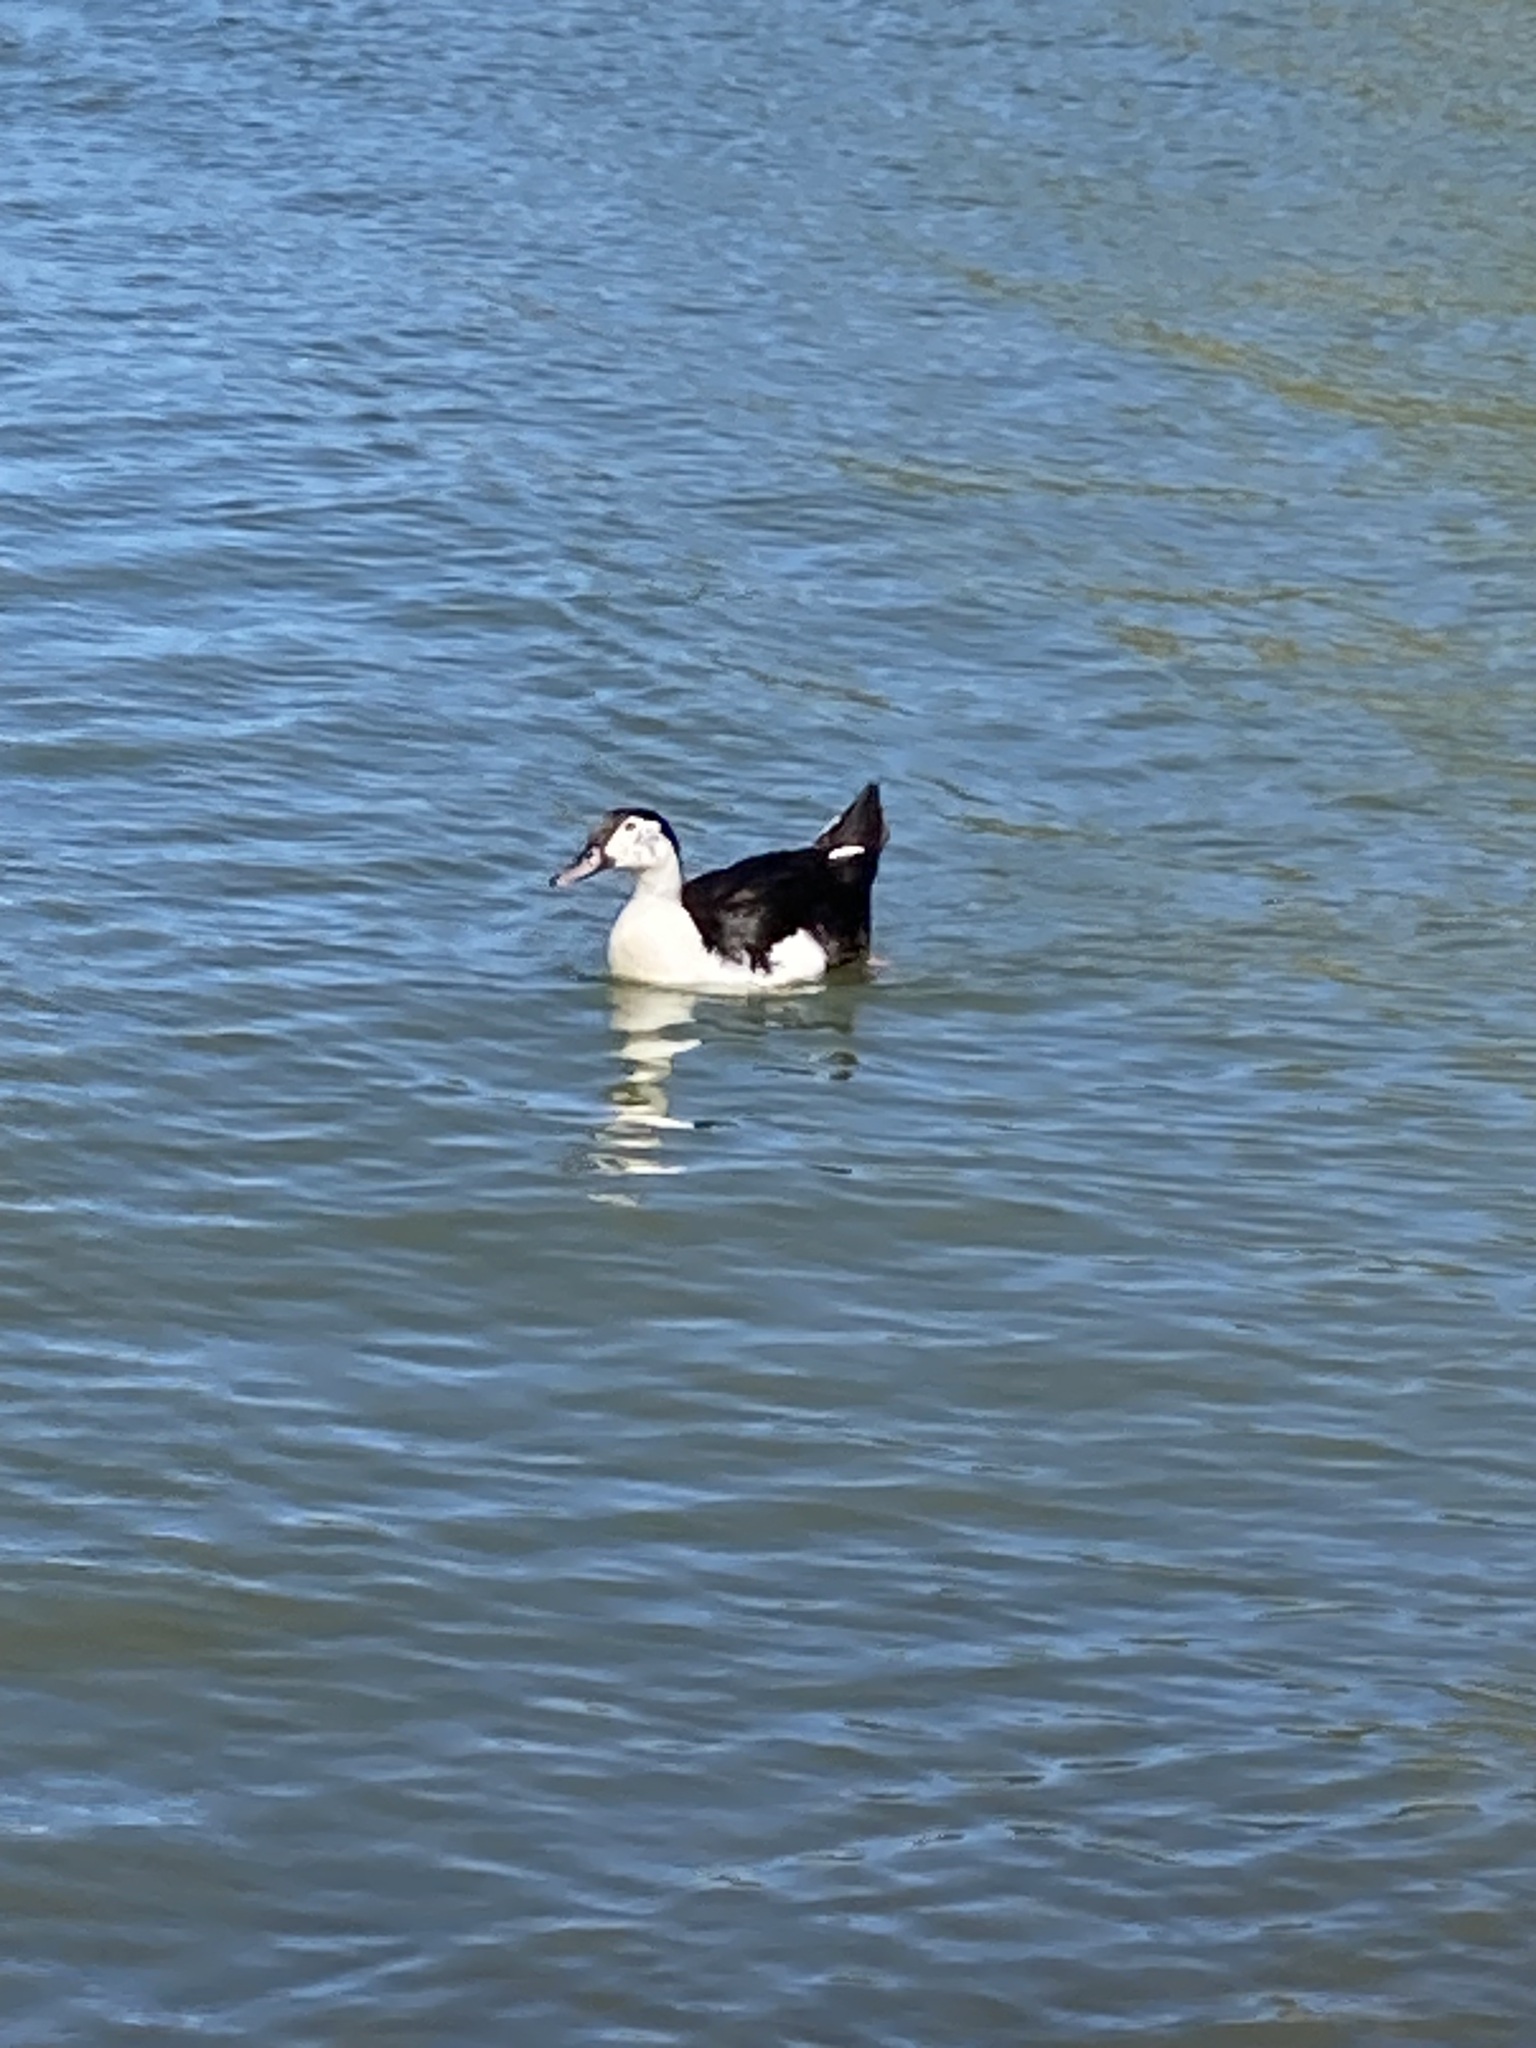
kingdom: Animalia
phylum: Chordata
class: Aves
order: Anseriformes
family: Anatidae
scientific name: Anatidae
